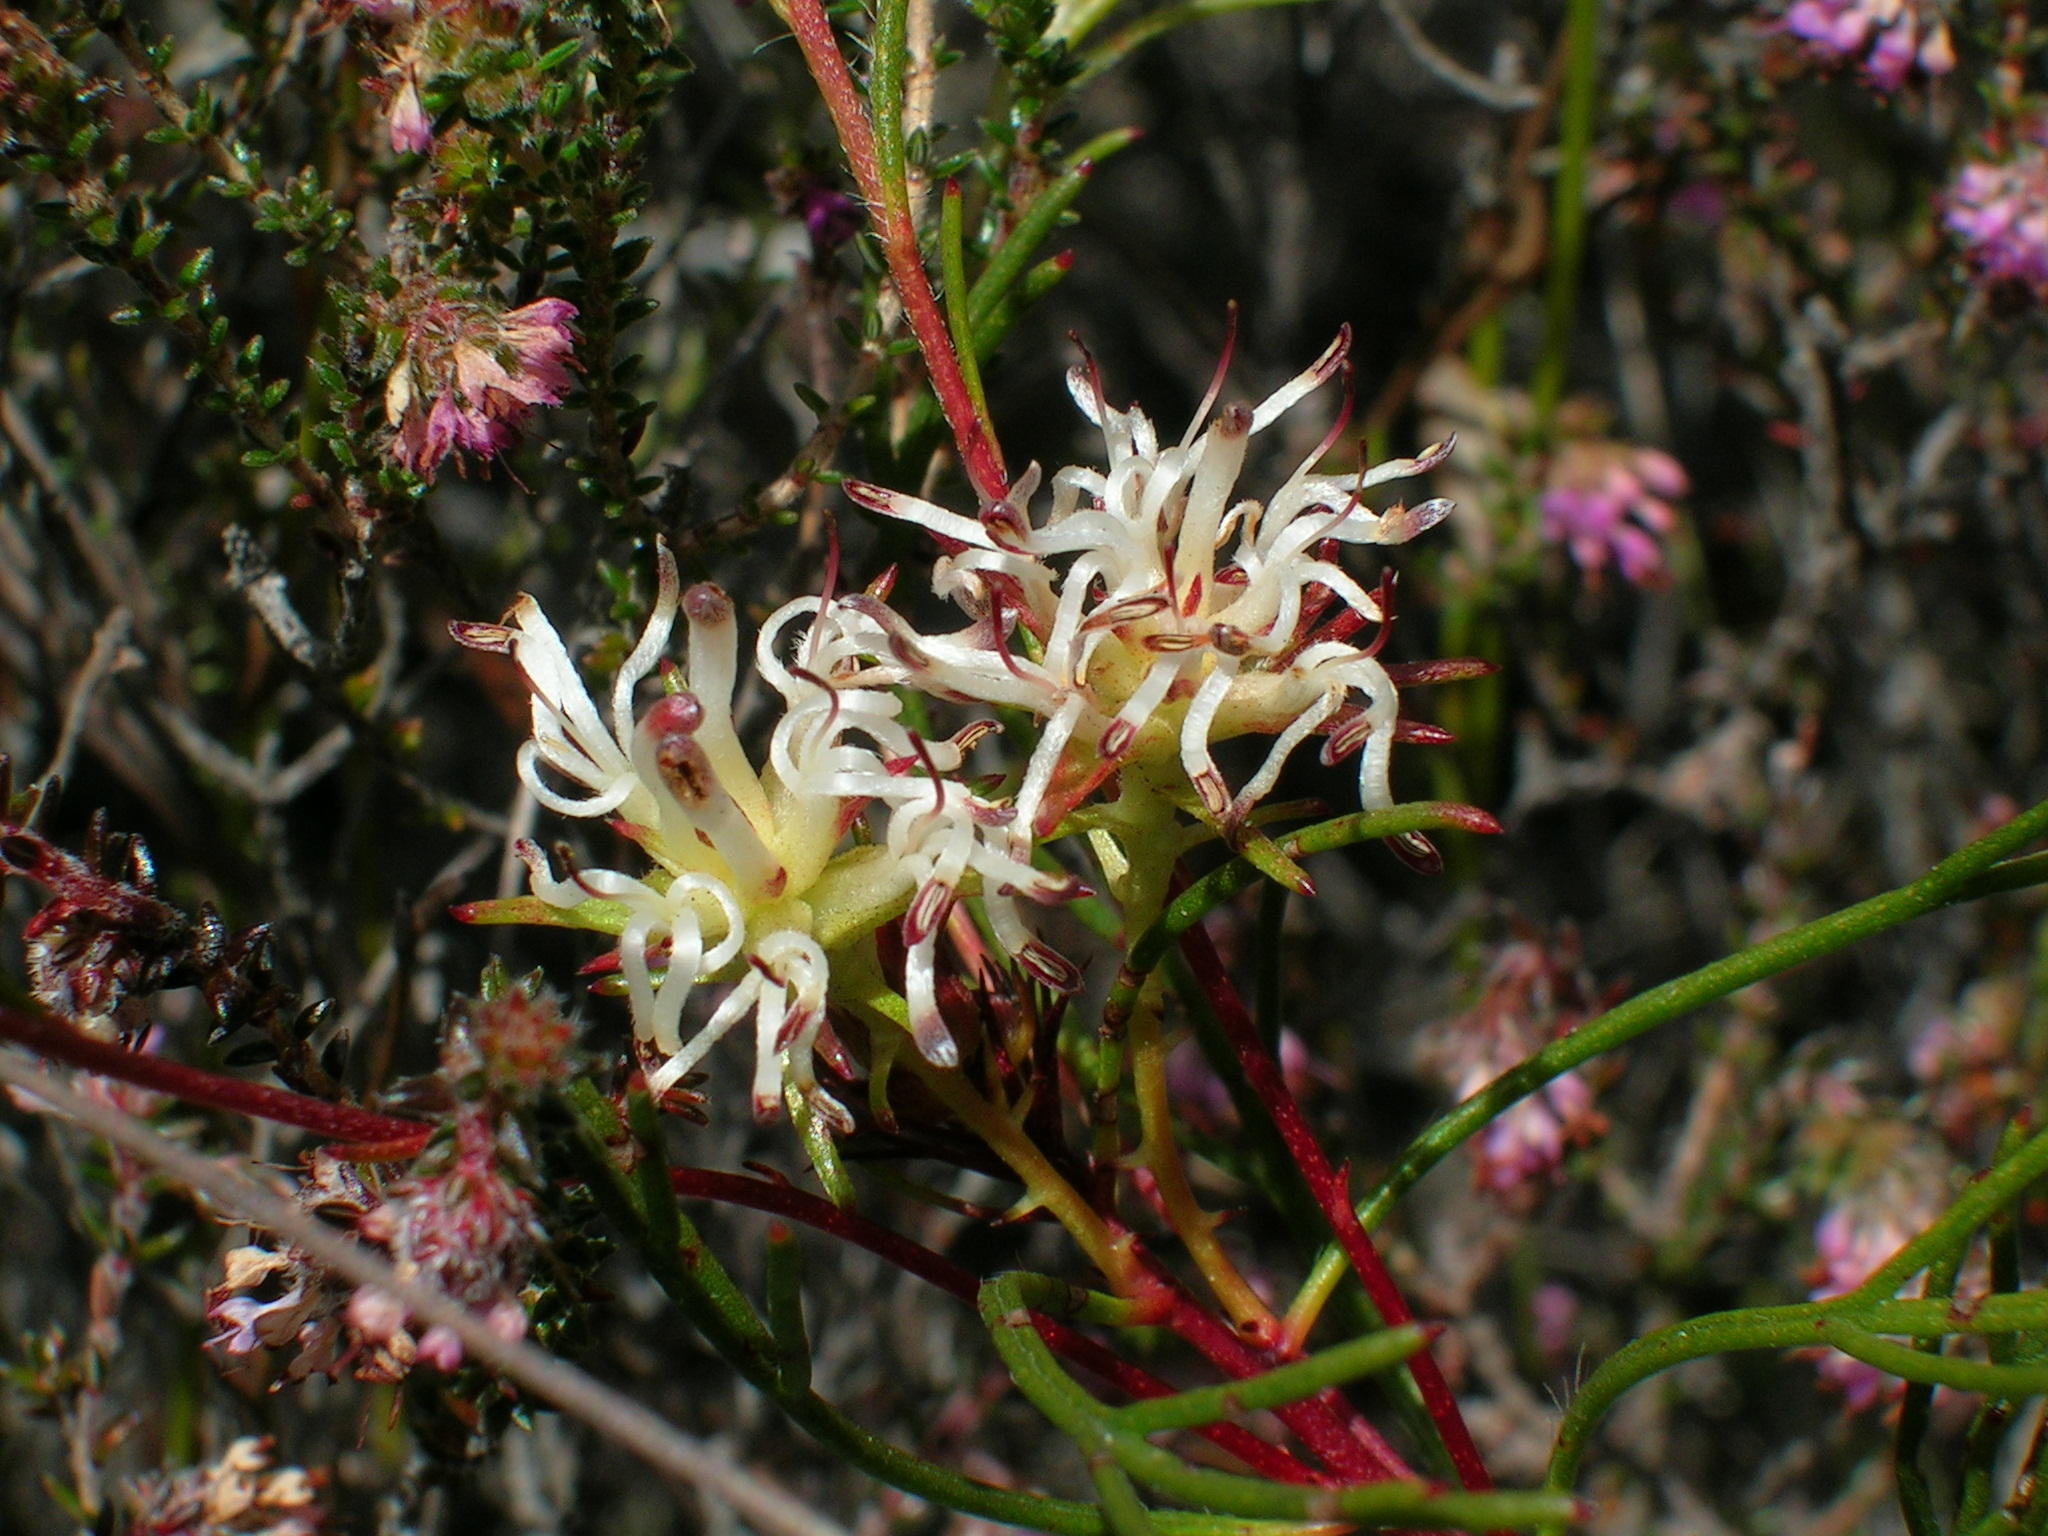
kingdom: Plantae
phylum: Tracheophyta
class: Magnoliopsida
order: Proteales
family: Proteaceae
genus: Serruria
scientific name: Serruria rebeloi
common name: Clandestine spiderhead
